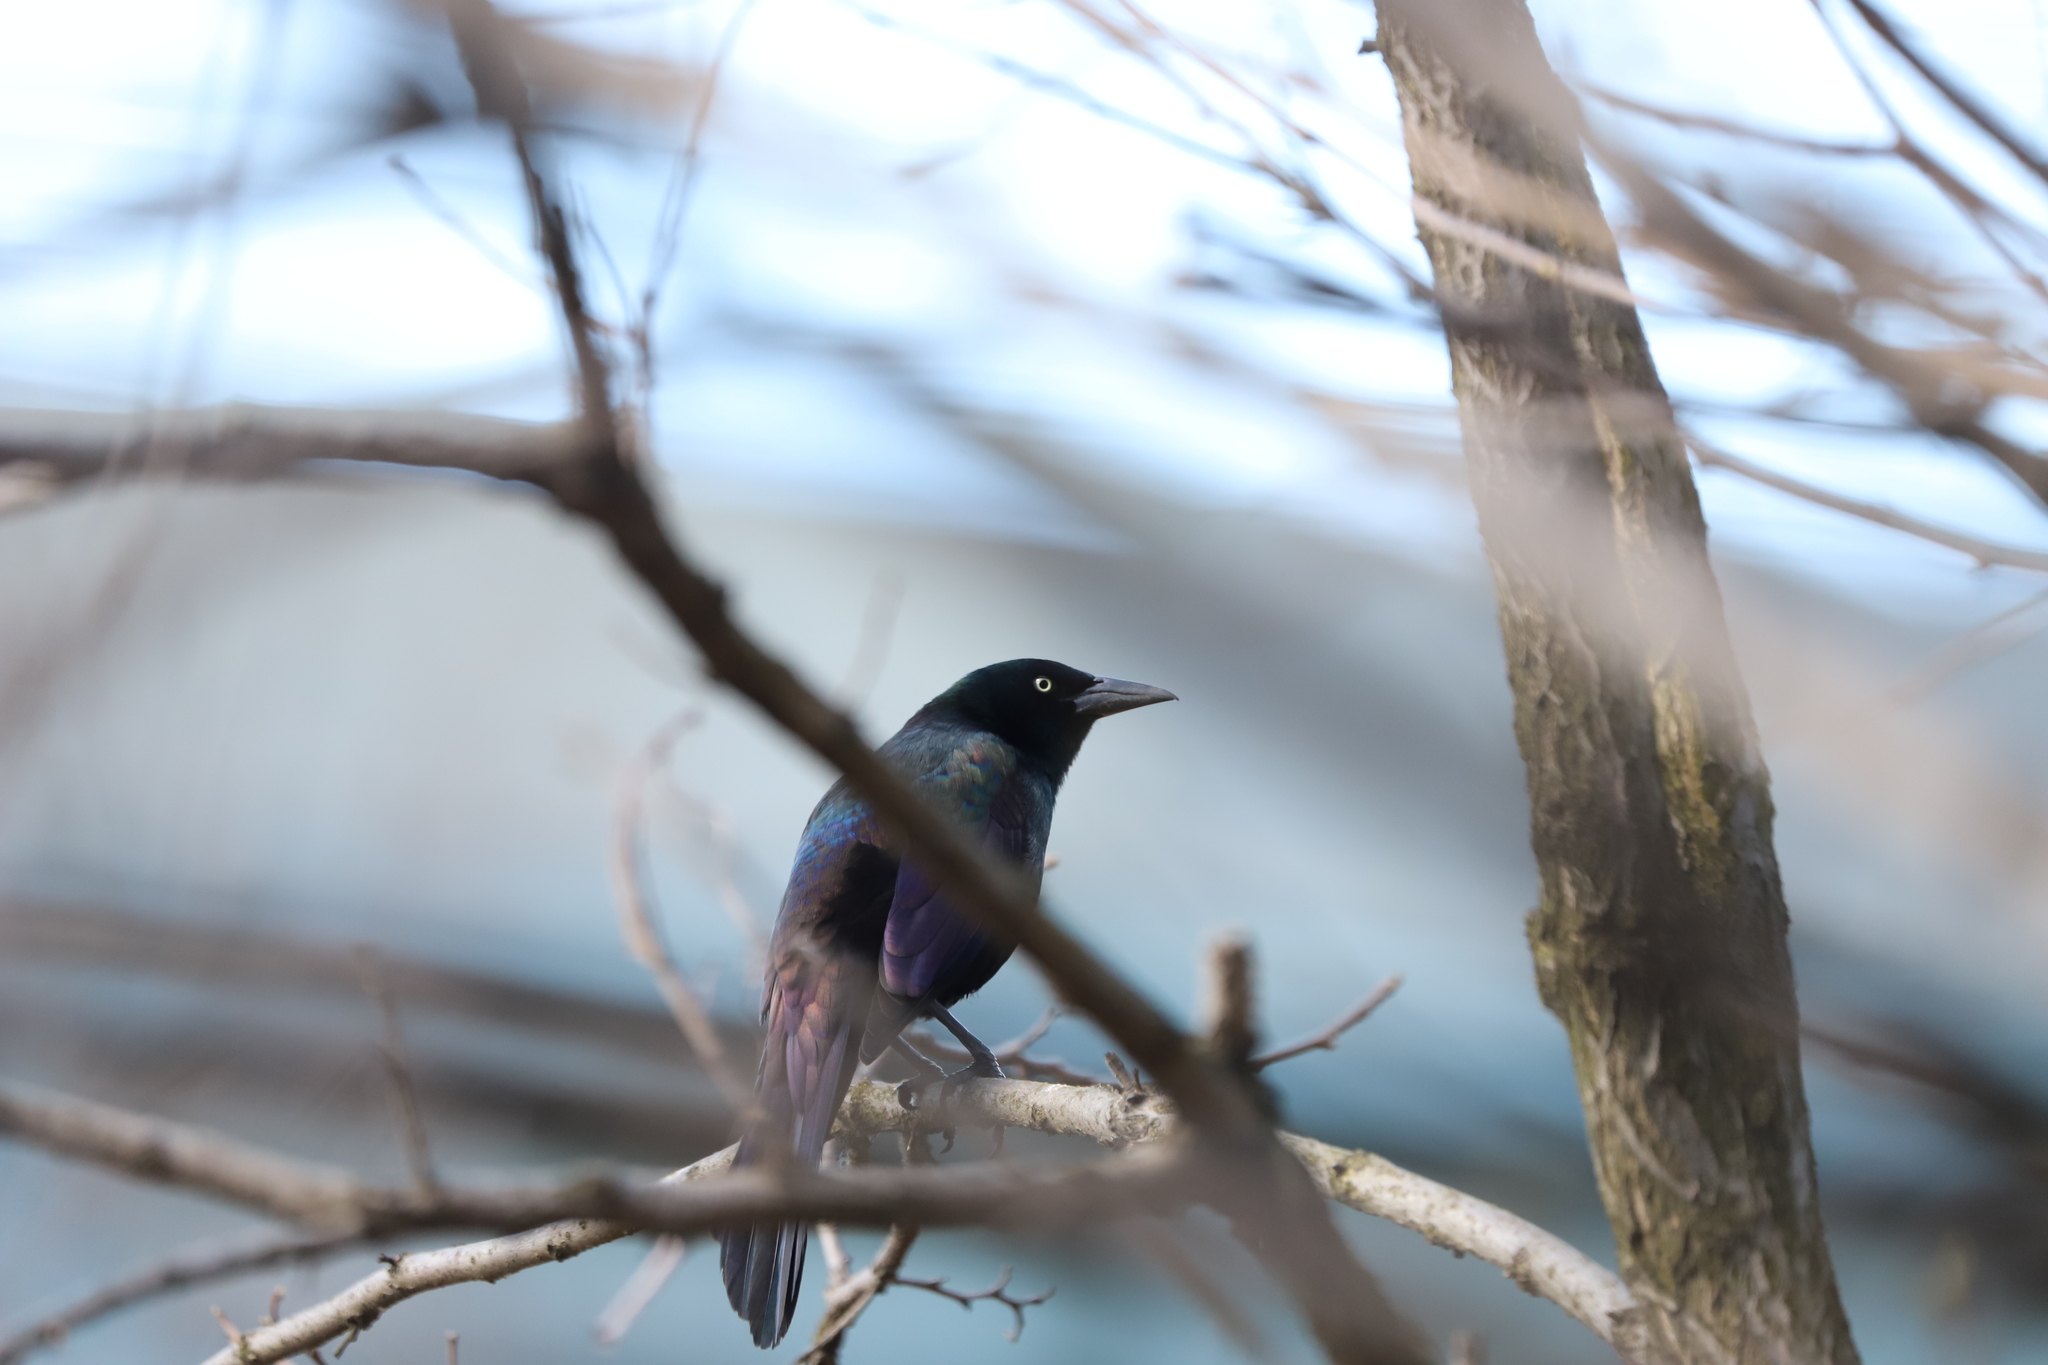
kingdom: Animalia
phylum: Chordata
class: Aves
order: Passeriformes
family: Icteridae
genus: Quiscalus
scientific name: Quiscalus quiscula
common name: Common grackle
